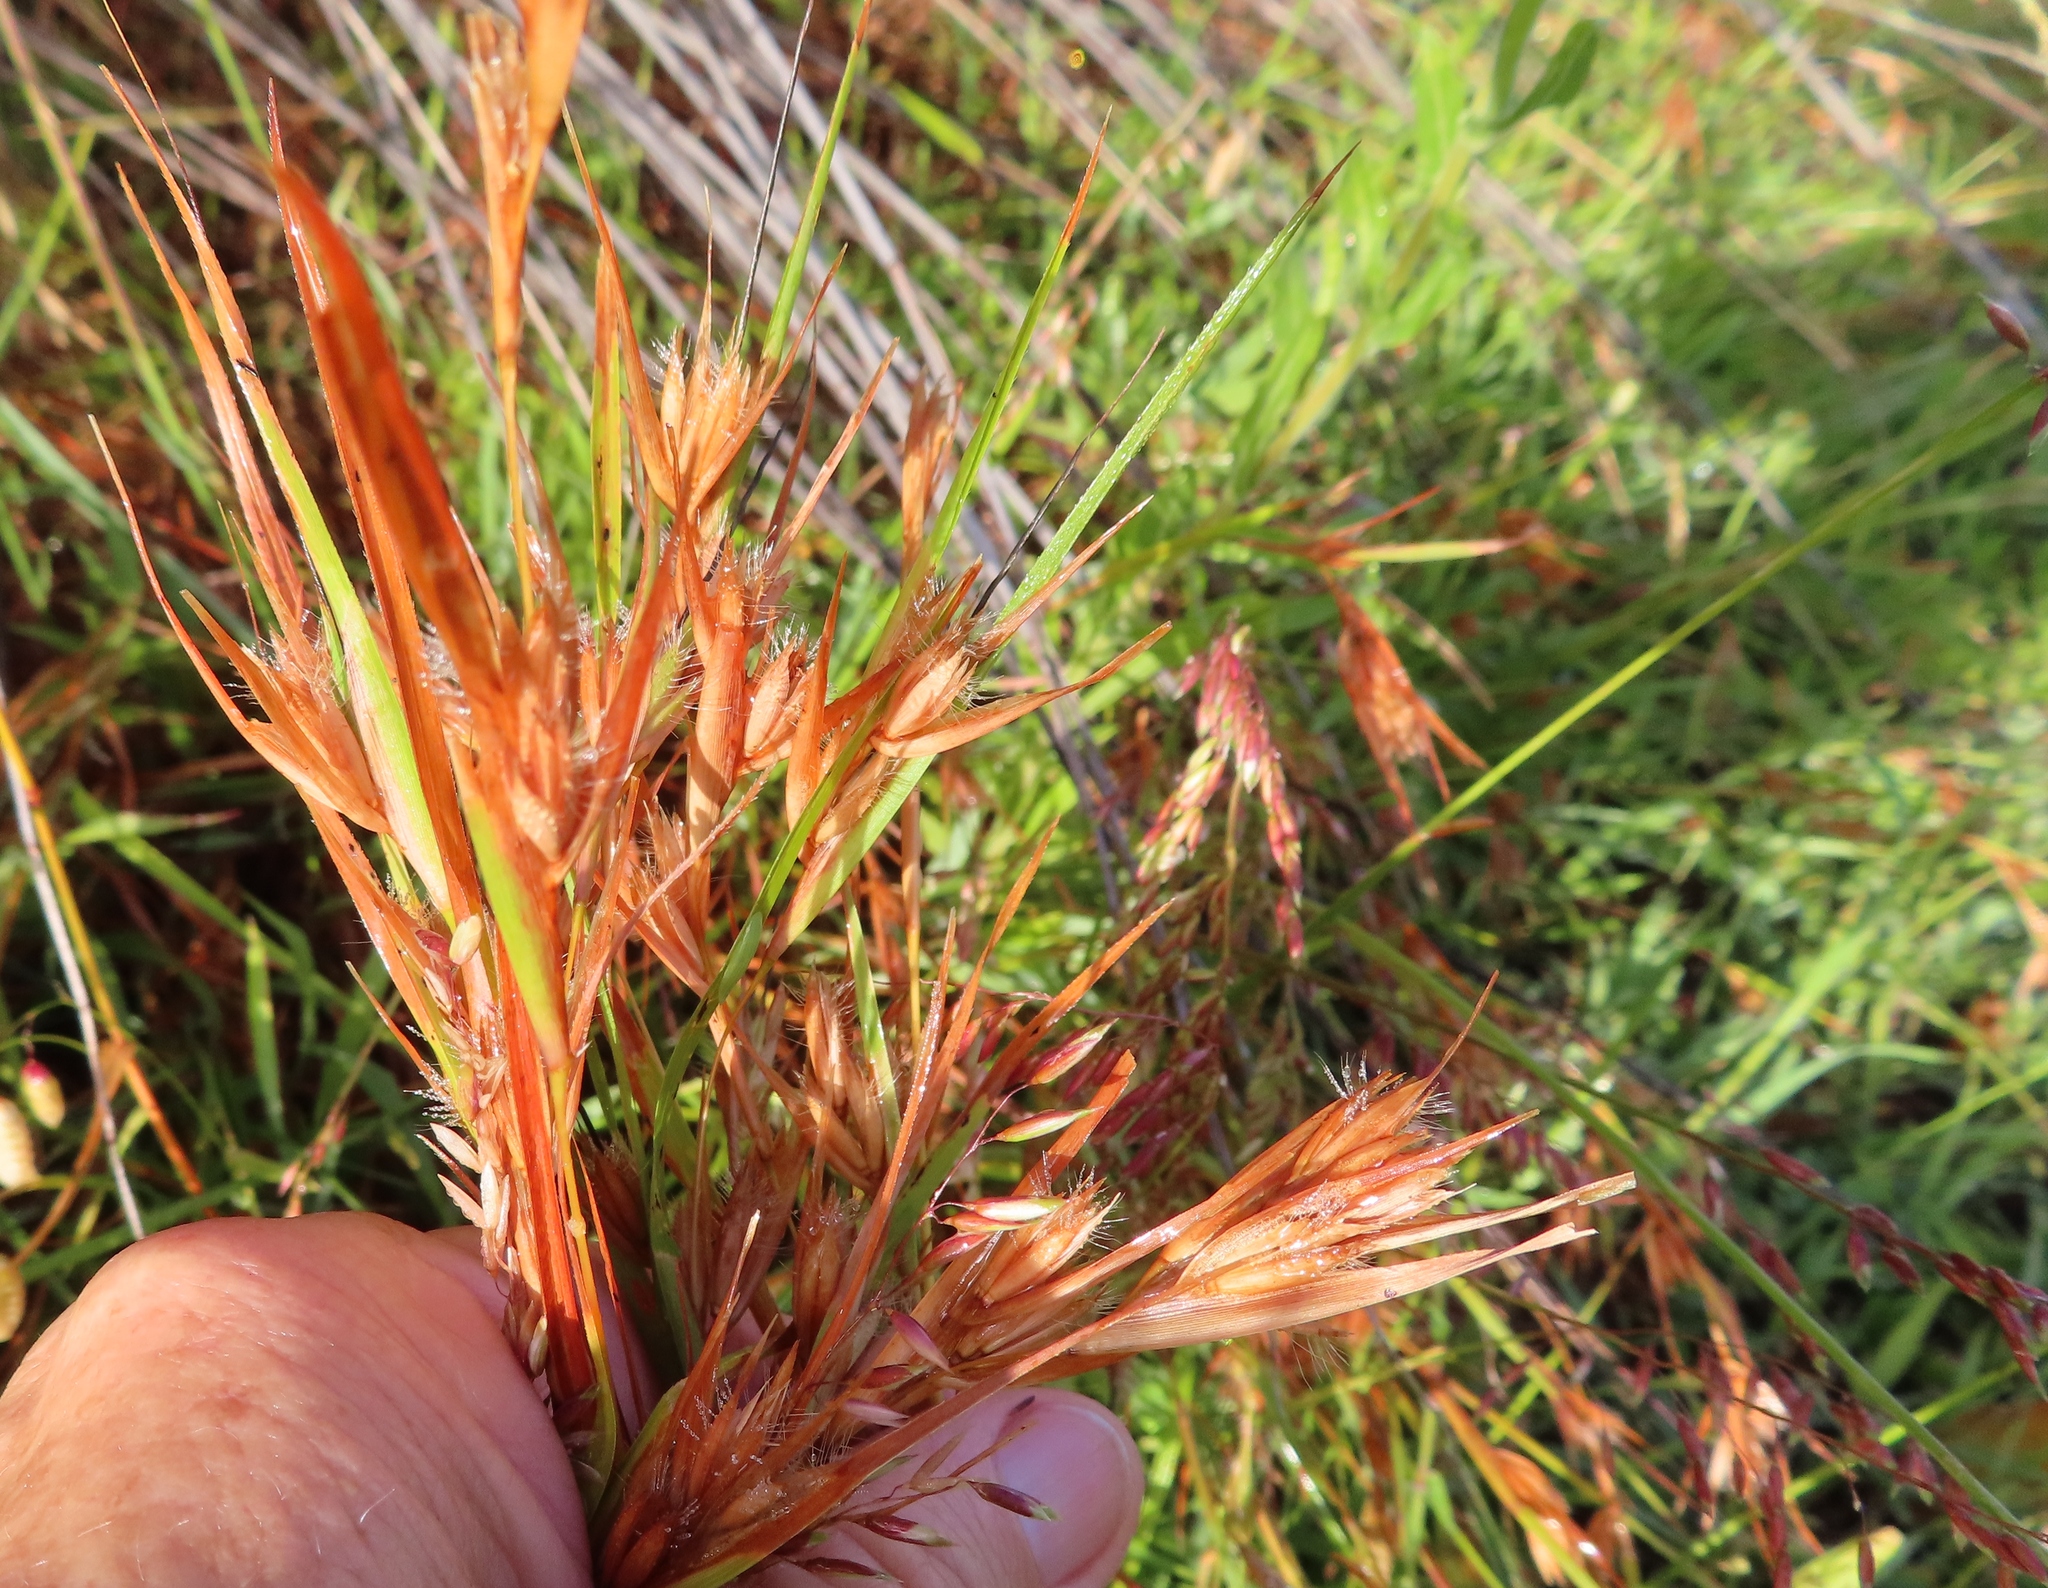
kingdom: Plantae
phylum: Tracheophyta
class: Liliopsida
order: Poales
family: Poaceae
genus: Themeda
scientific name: Themeda triandra
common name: Kangaroo grass
